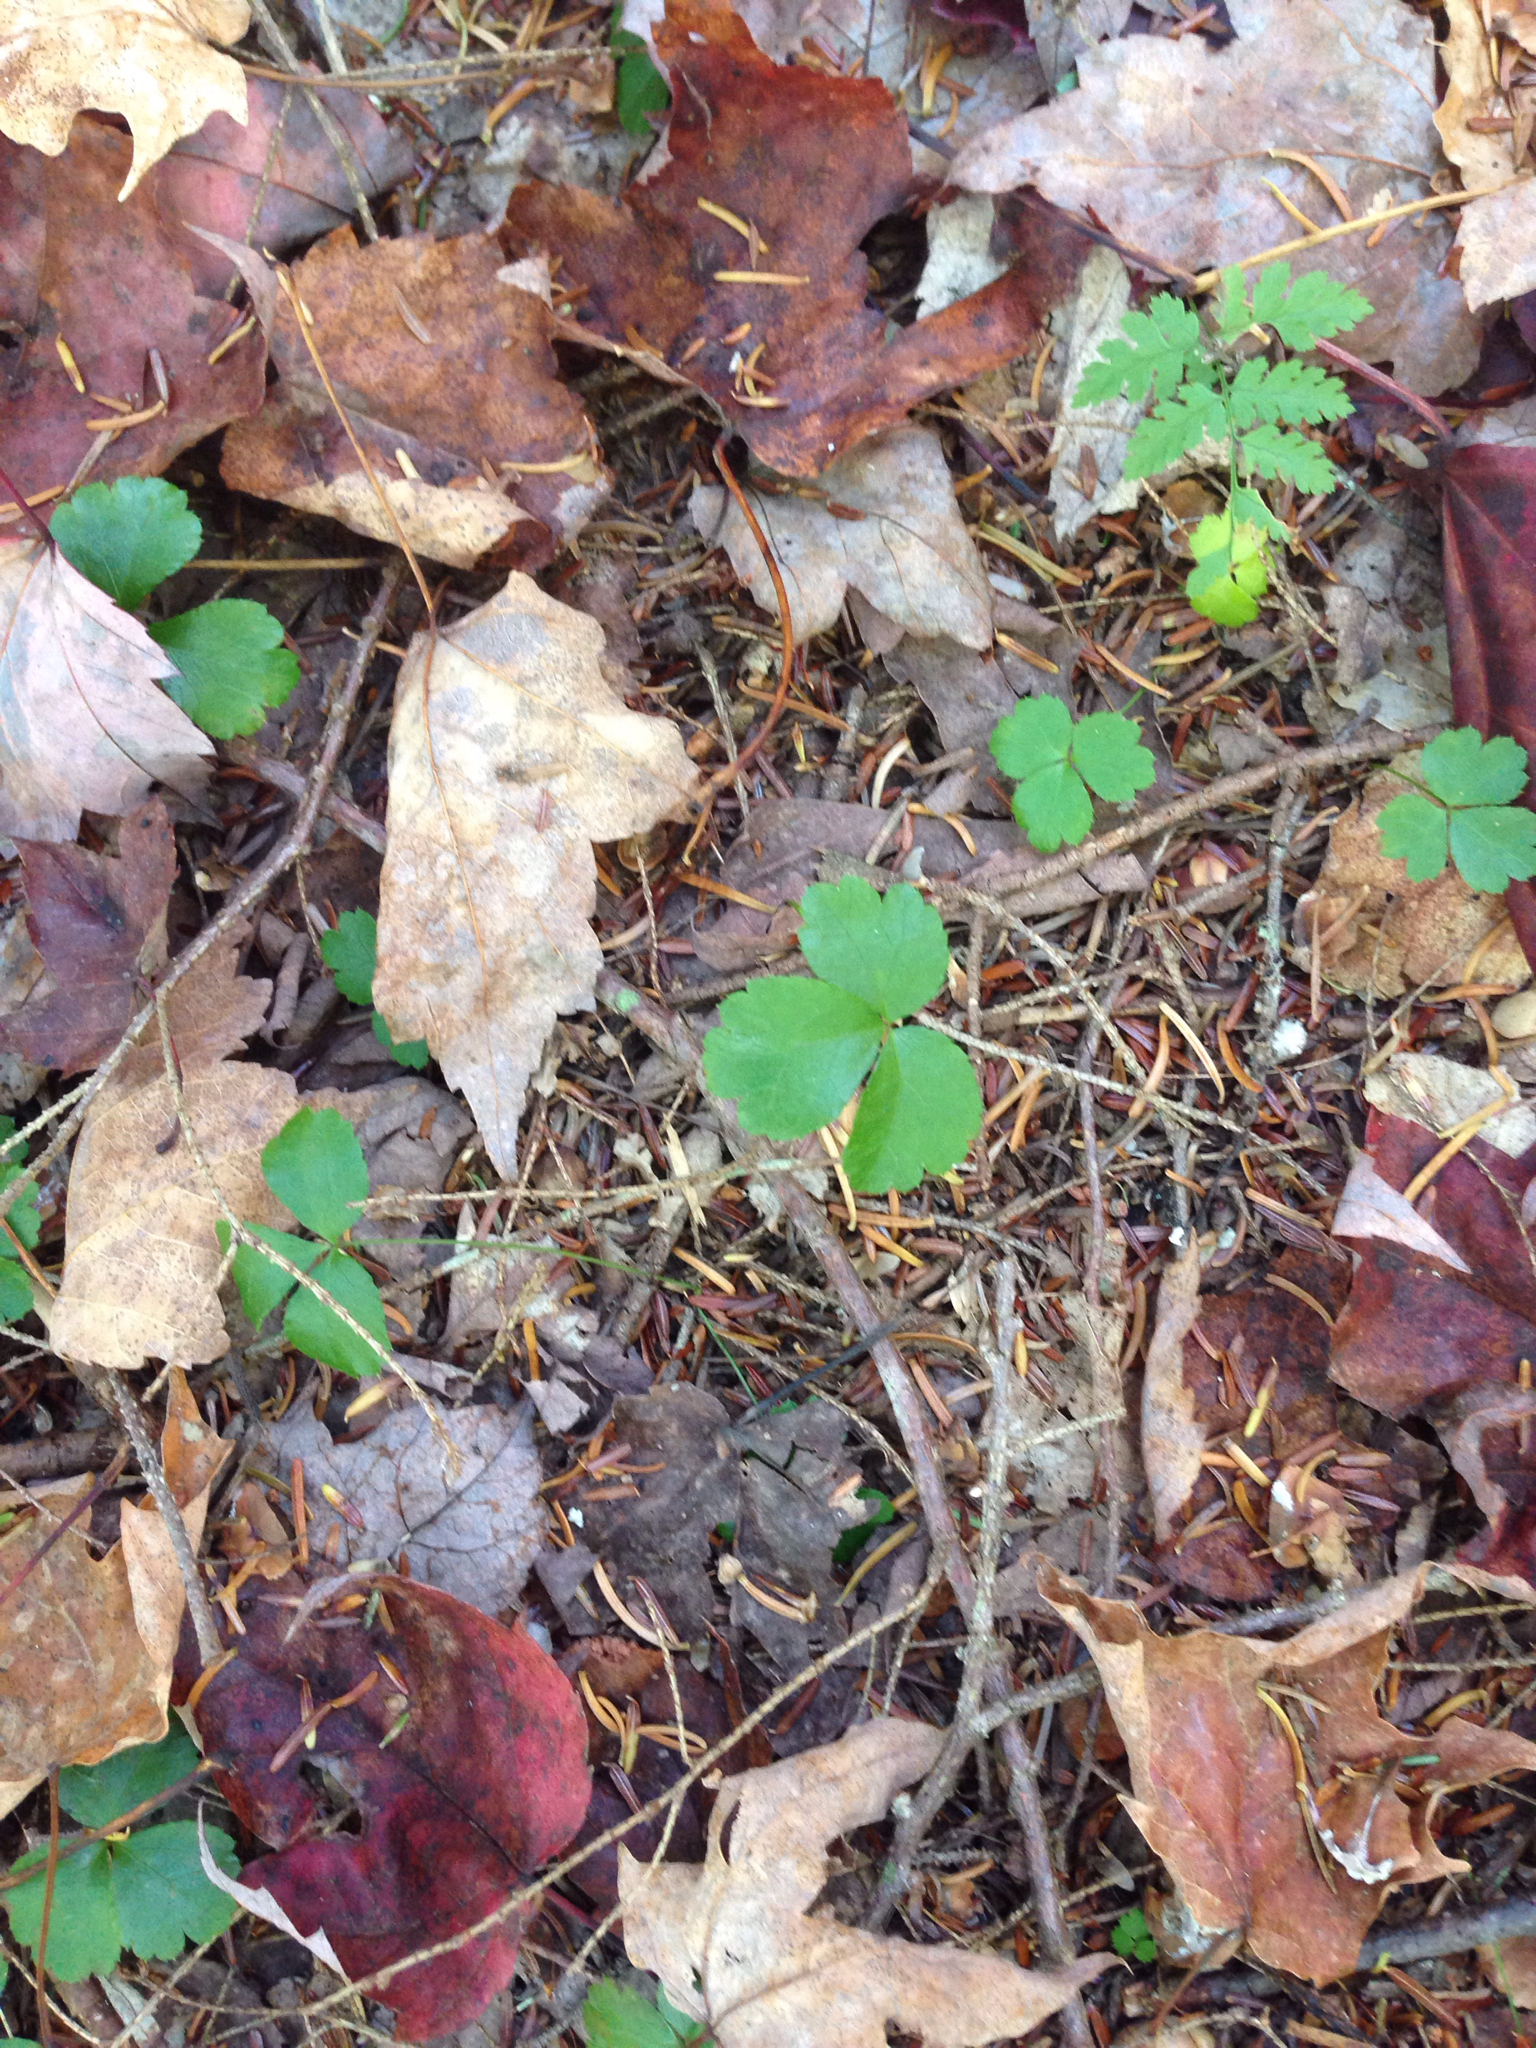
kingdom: Plantae
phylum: Tracheophyta
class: Magnoliopsida
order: Ranunculales
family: Ranunculaceae
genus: Coptis
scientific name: Coptis trifolia
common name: Canker-root
